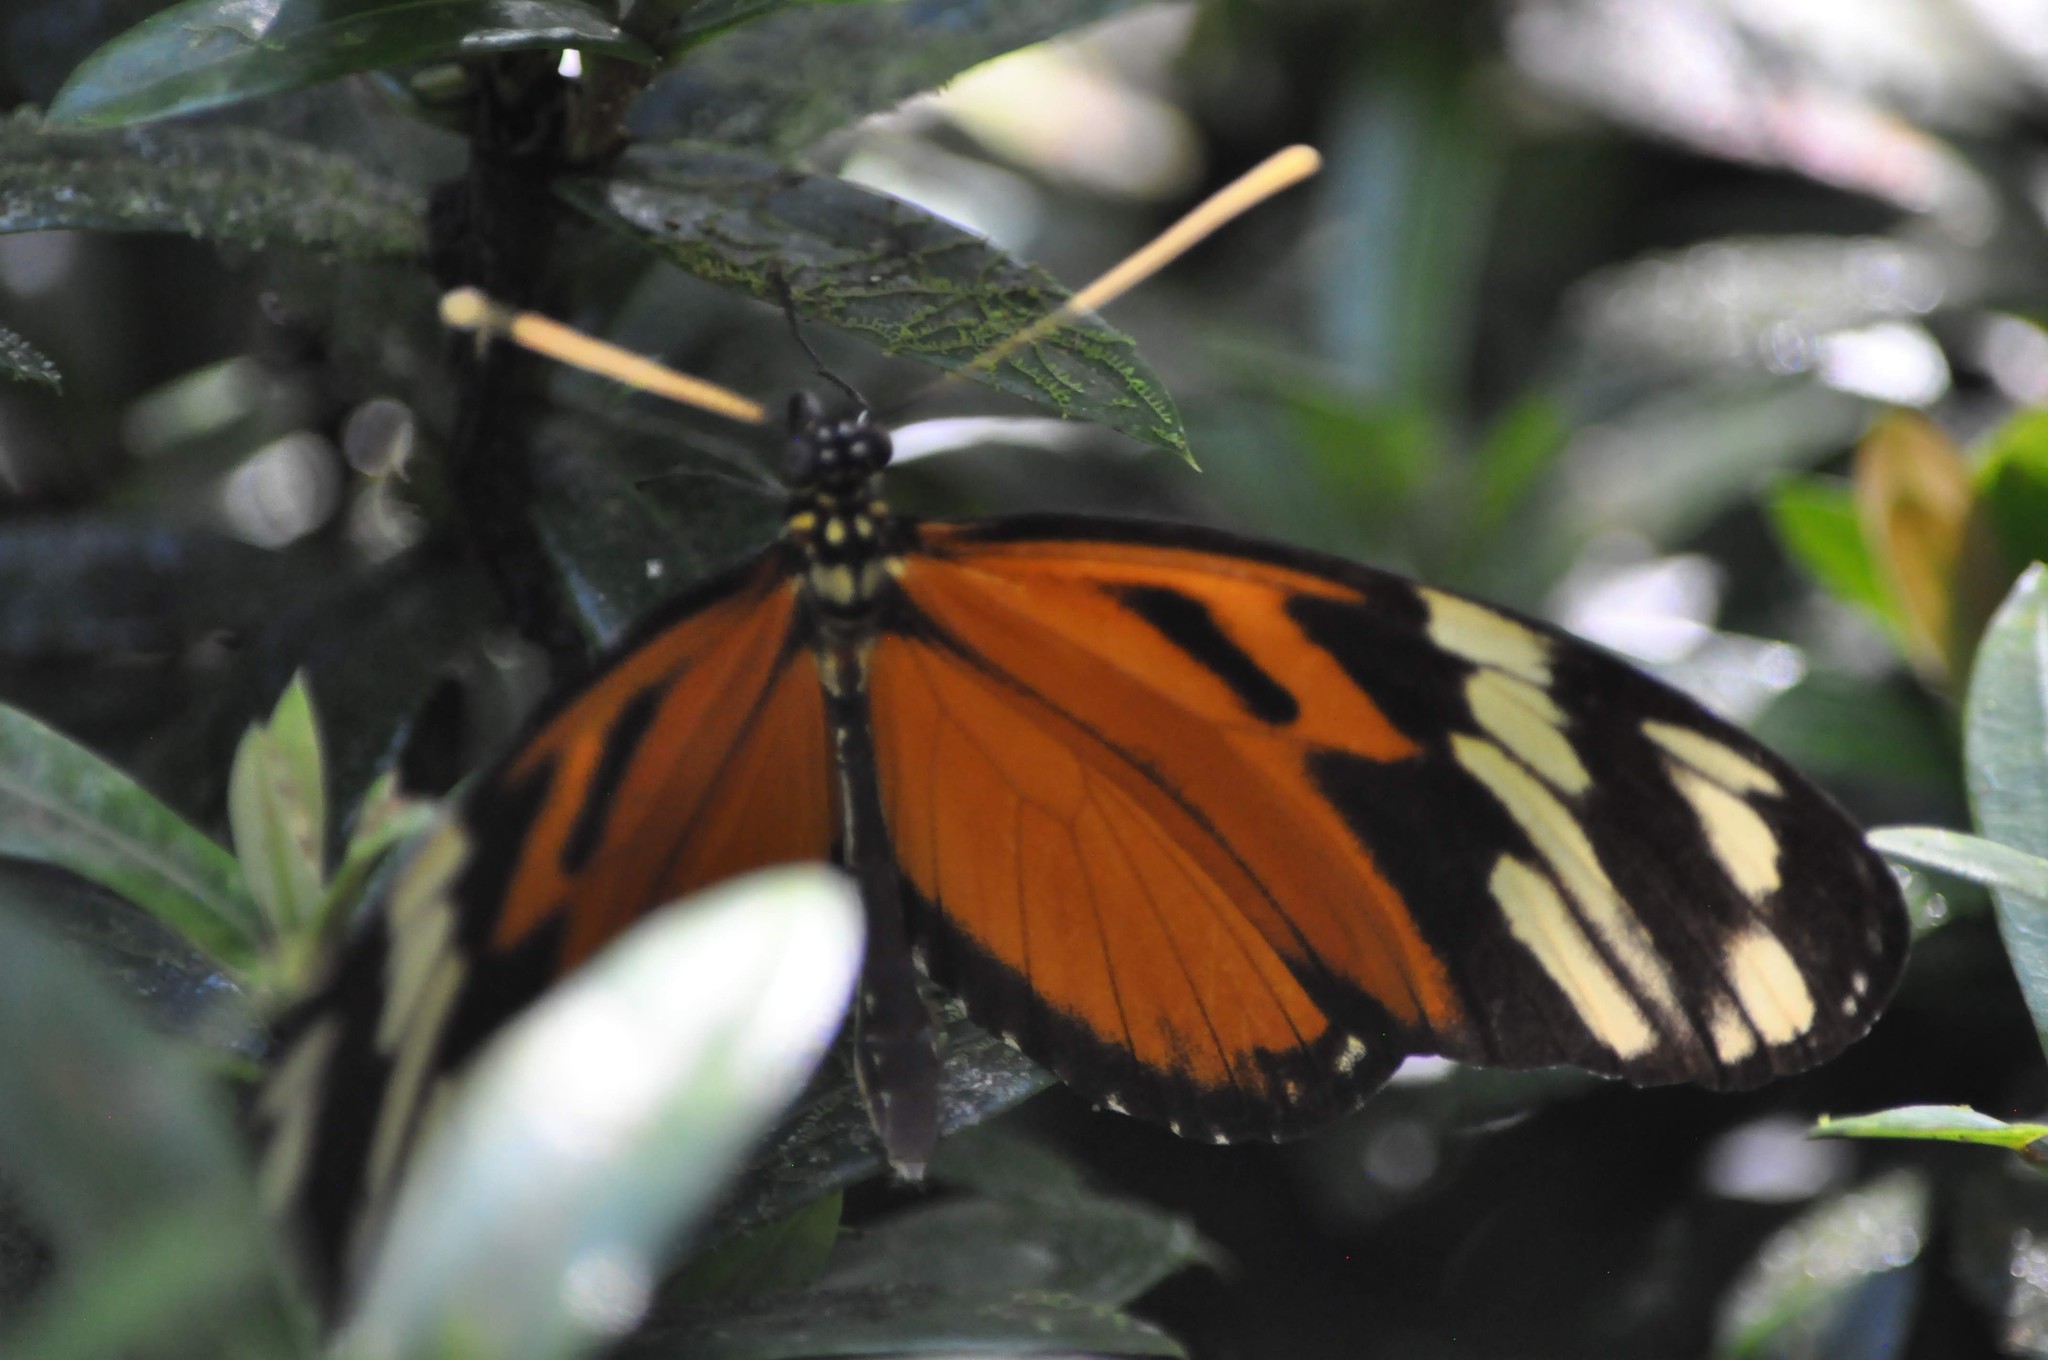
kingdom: Animalia
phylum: Arthropoda
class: Insecta
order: Lepidoptera
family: Nymphalidae
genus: Heliconius
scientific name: Heliconius ismenius
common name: Ismenius tiger
